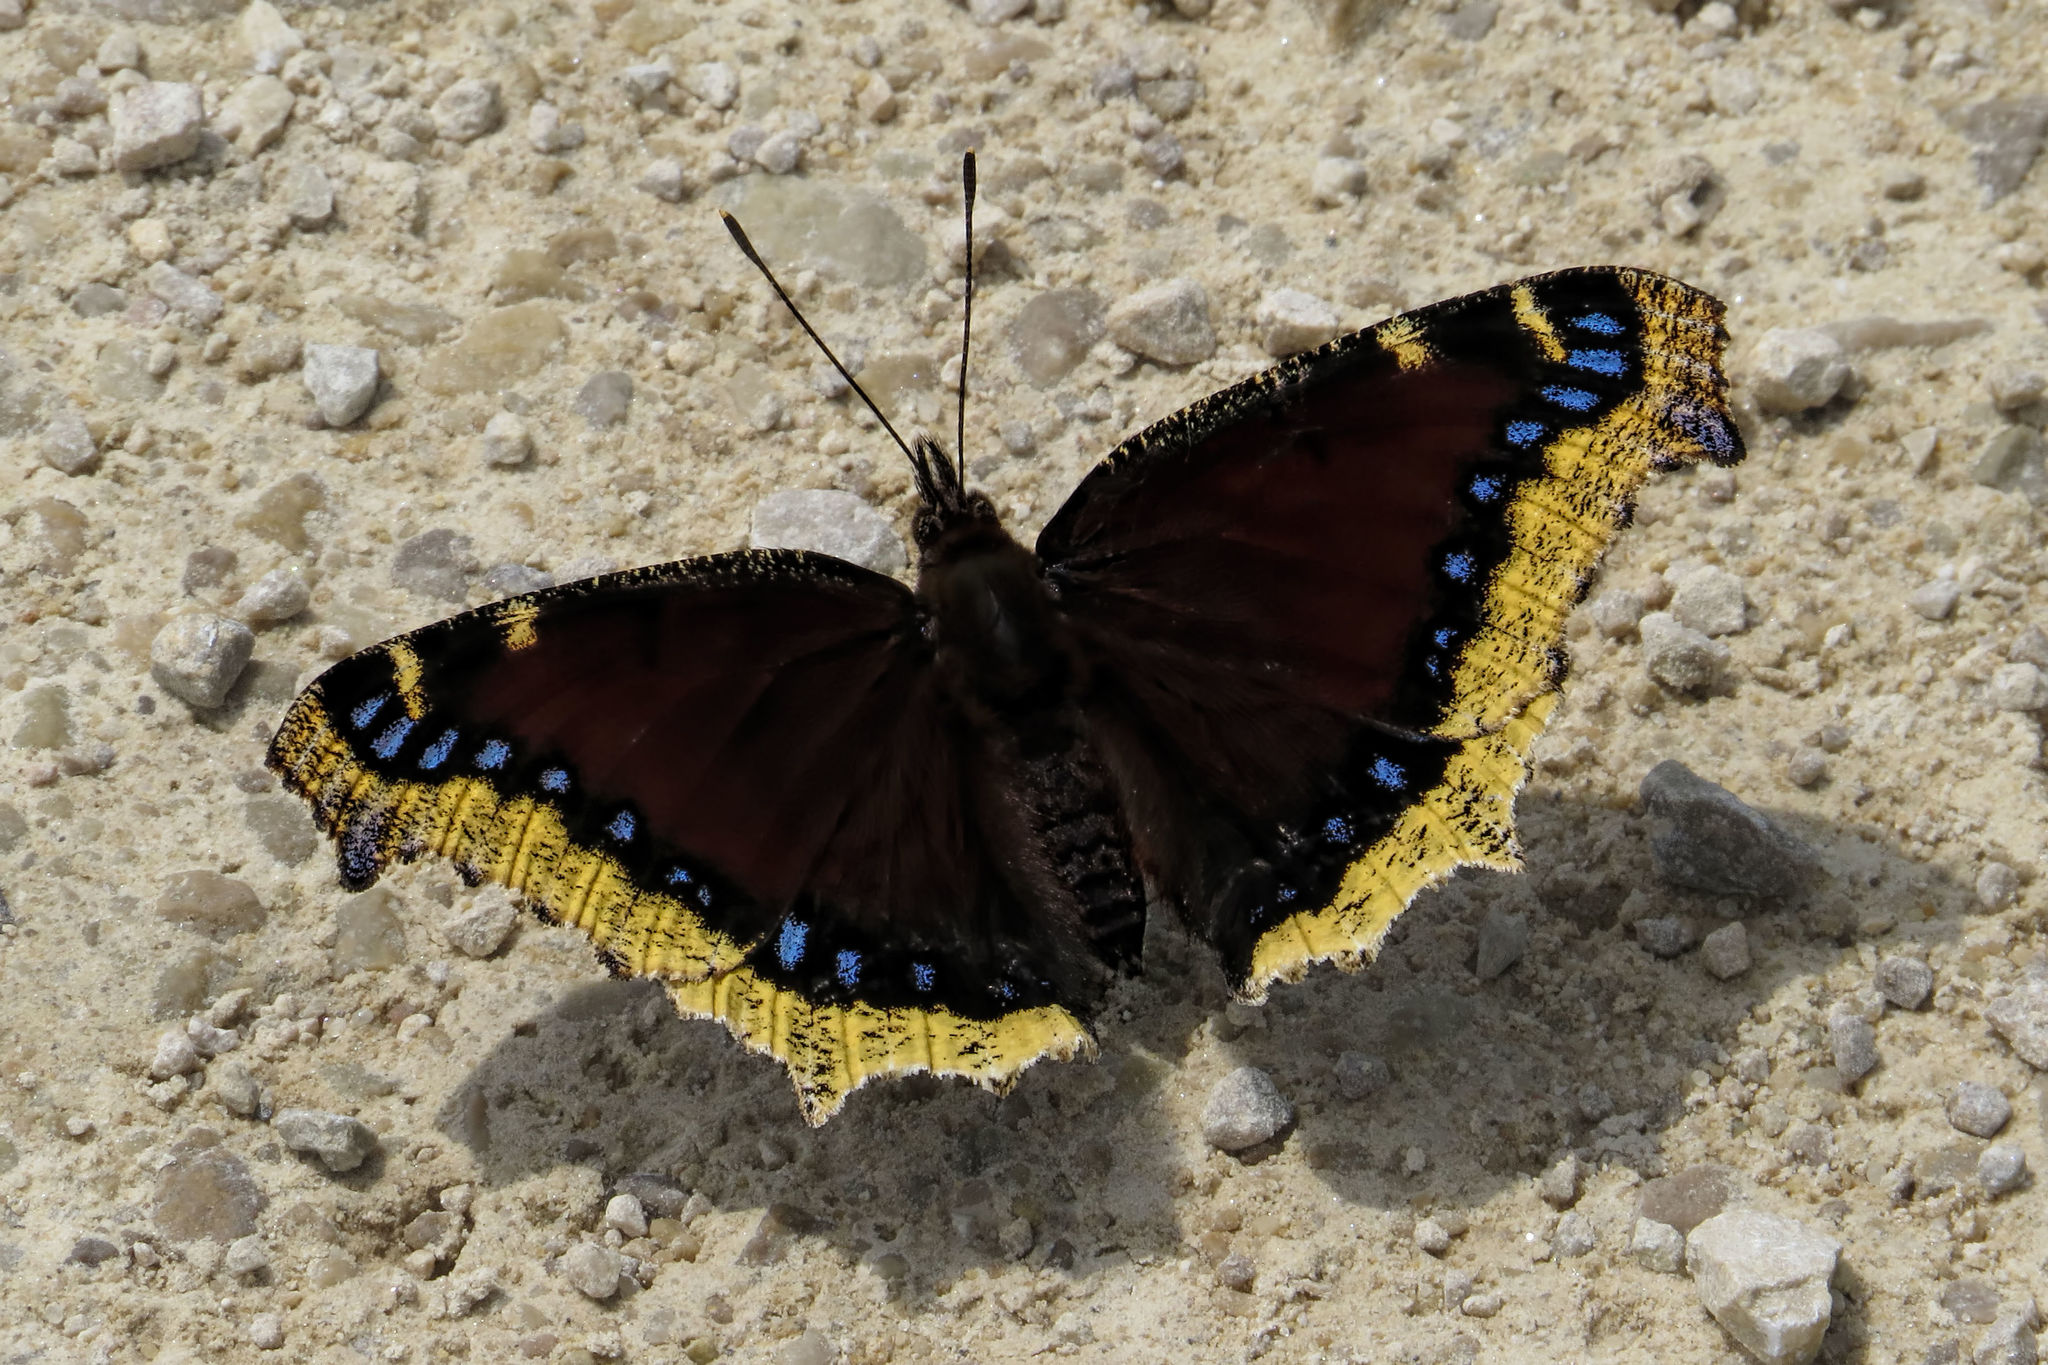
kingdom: Animalia
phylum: Arthropoda
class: Insecta
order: Lepidoptera
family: Nymphalidae
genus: Nymphalis
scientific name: Nymphalis antiopa
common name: Camberwell beauty
